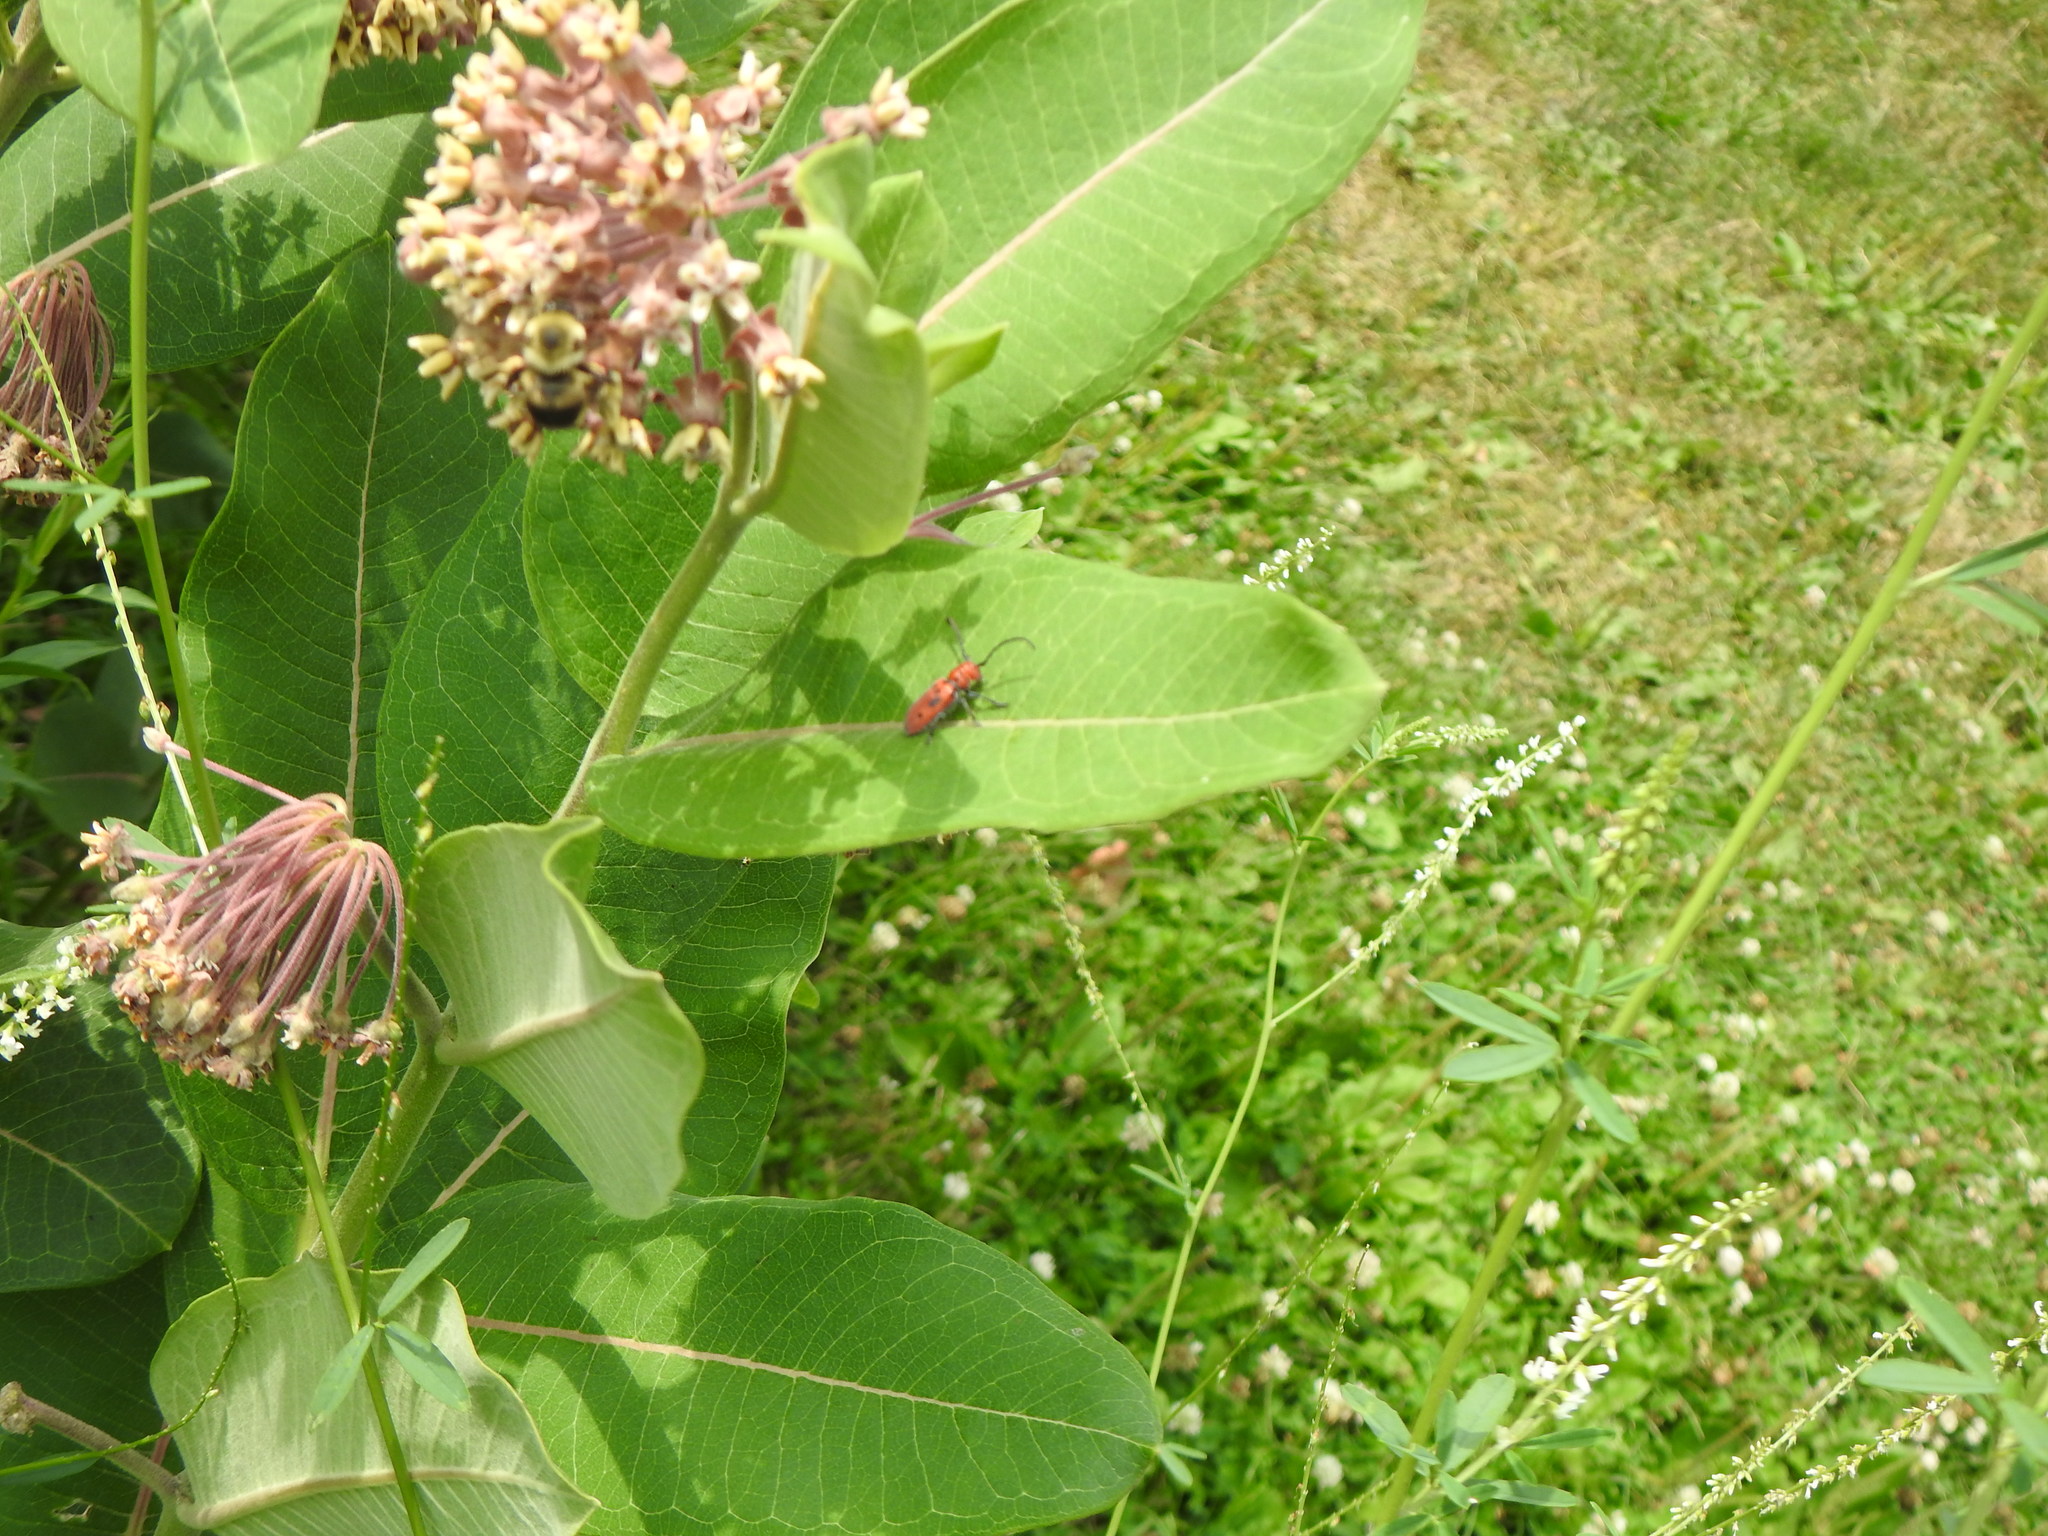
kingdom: Animalia
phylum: Arthropoda
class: Insecta
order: Coleoptera
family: Cerambycidae
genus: Tetraopes
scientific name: Tetraopes tetrophthalmus
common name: Red milkweed beetle
